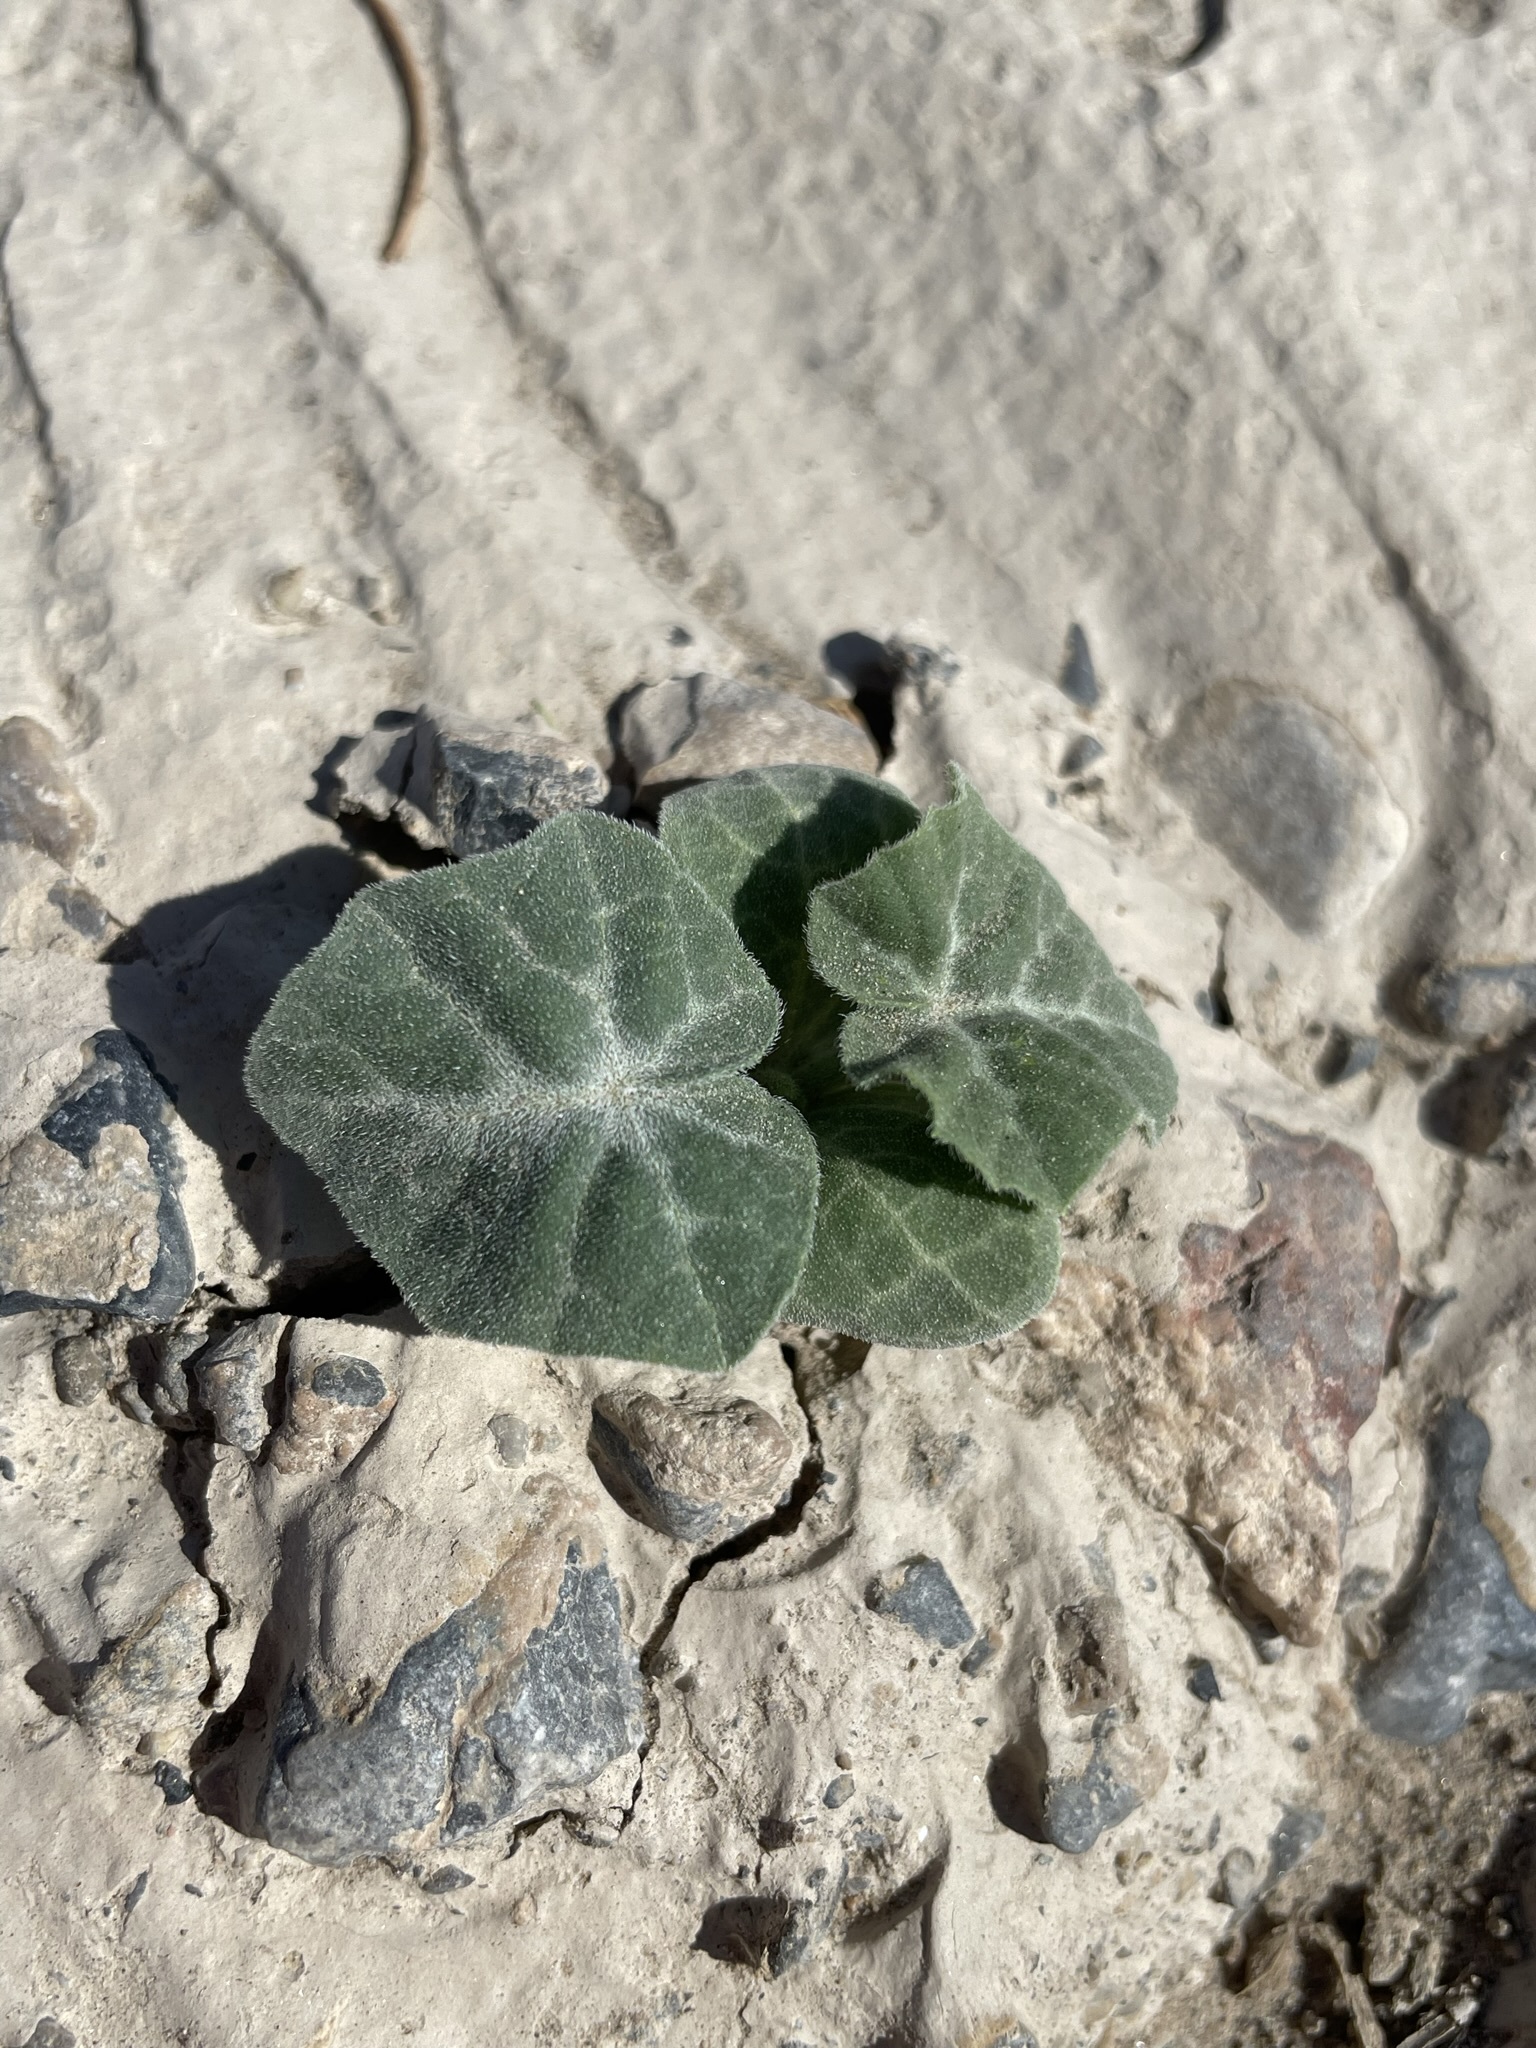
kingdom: Plantae
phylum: Tracheophyta
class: Magnoliopsida
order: Cucurbitales
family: Cucurbitaceae
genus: Cucurbita
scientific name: Cucurbita palmata
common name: Coyote-melon
